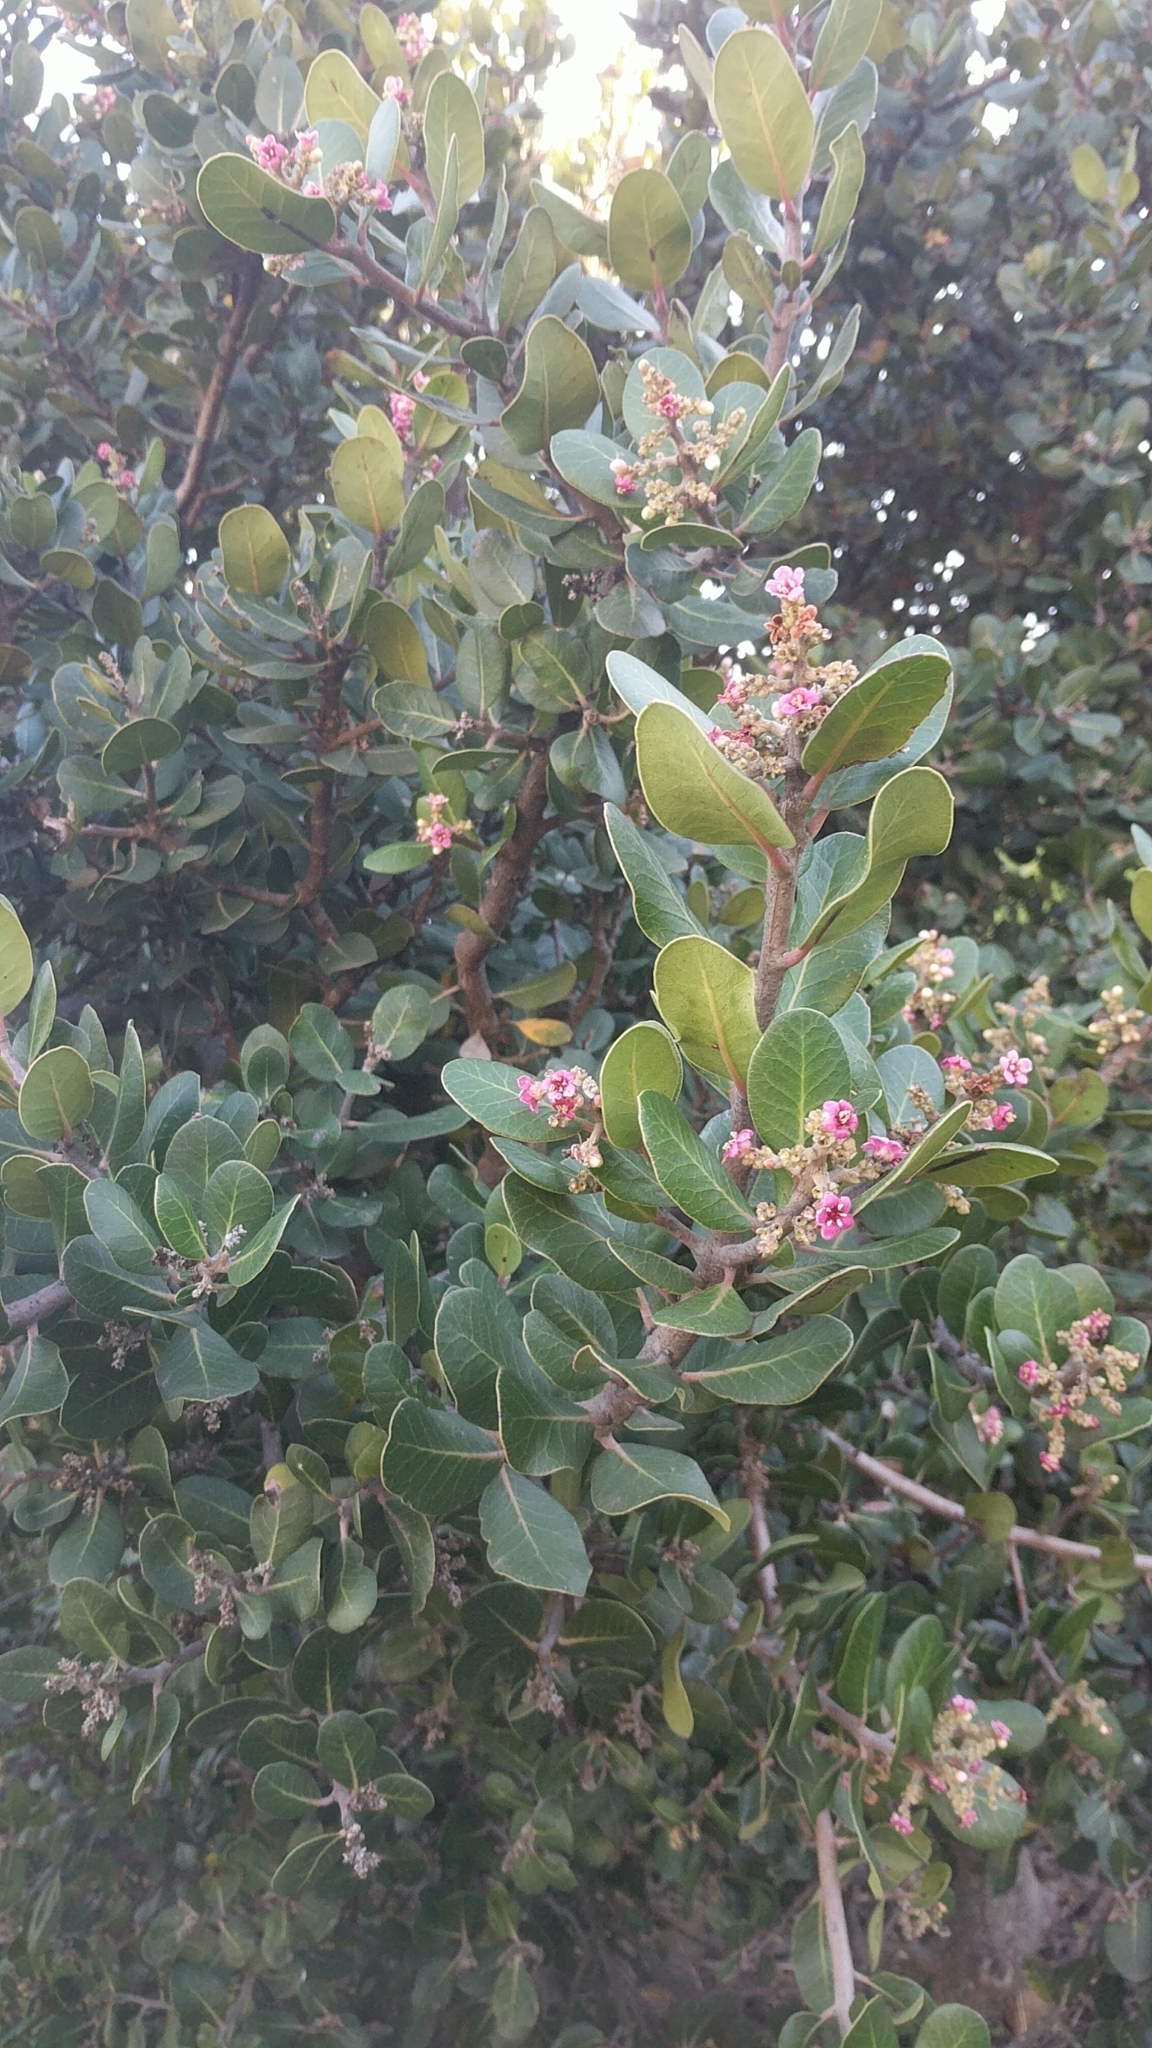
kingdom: Plantae
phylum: Tracheophyta
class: Magnoliopsida
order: Sapindales
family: Anacardiaceae
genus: Rhus
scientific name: Rhus integrifolia
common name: Lemonade sumac
